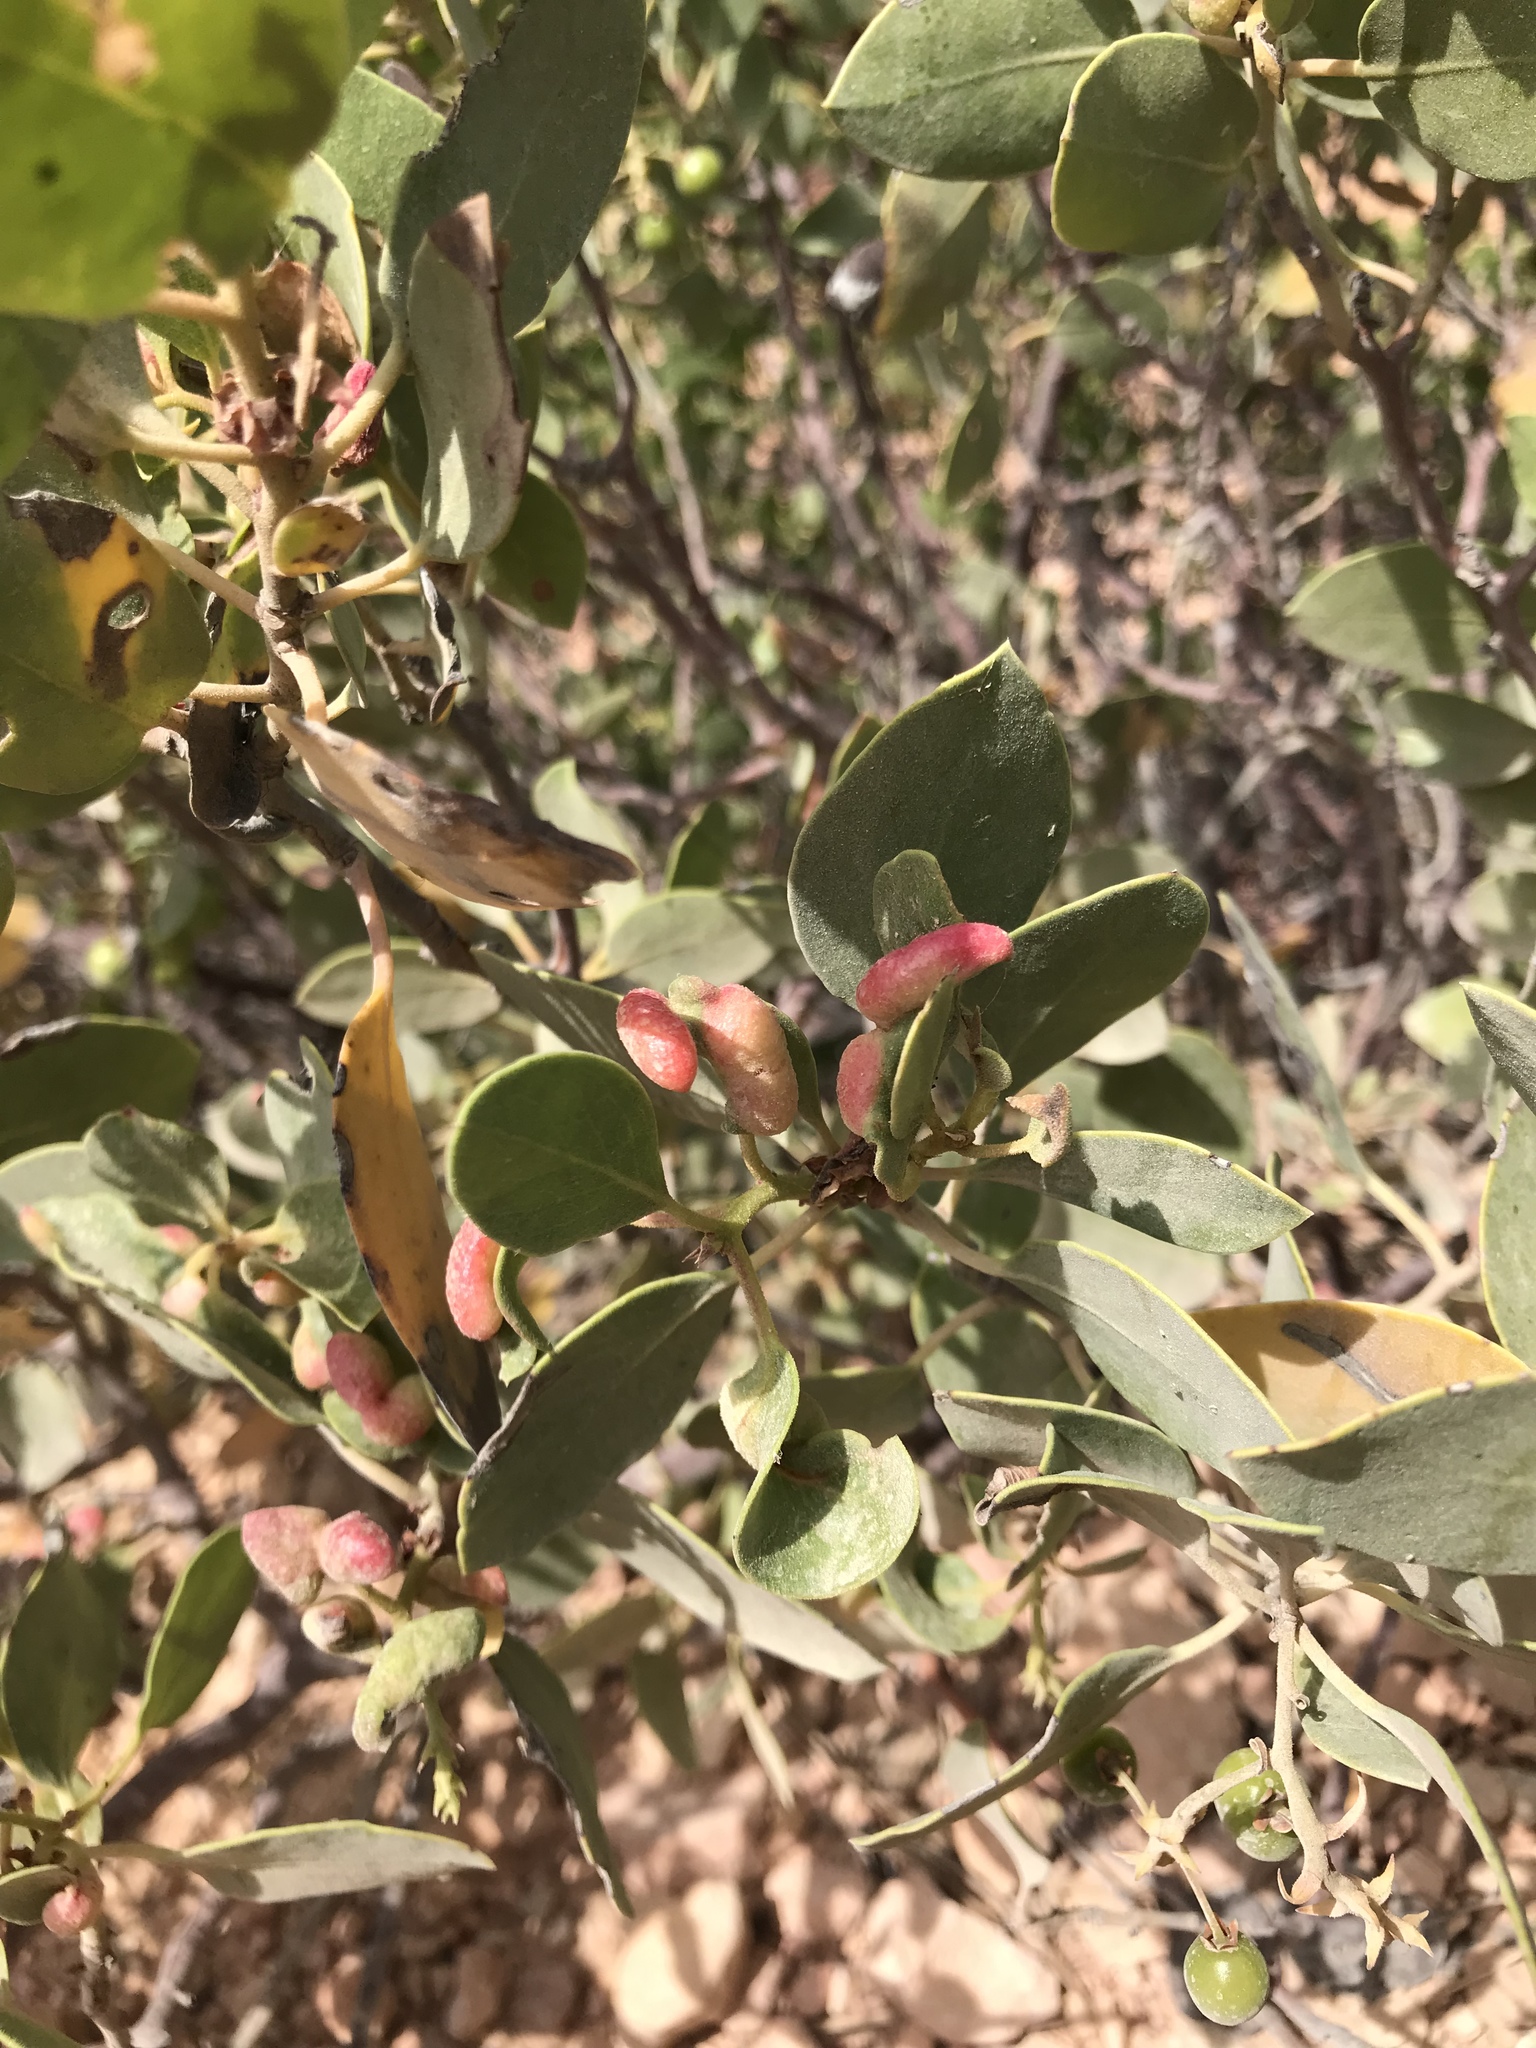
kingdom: Animalia
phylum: Arthropoda
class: Insecta
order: Hemiptera
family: Aphididae
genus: Tamalia
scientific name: Tamalia coweni
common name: Manzanita leafgall aphid
